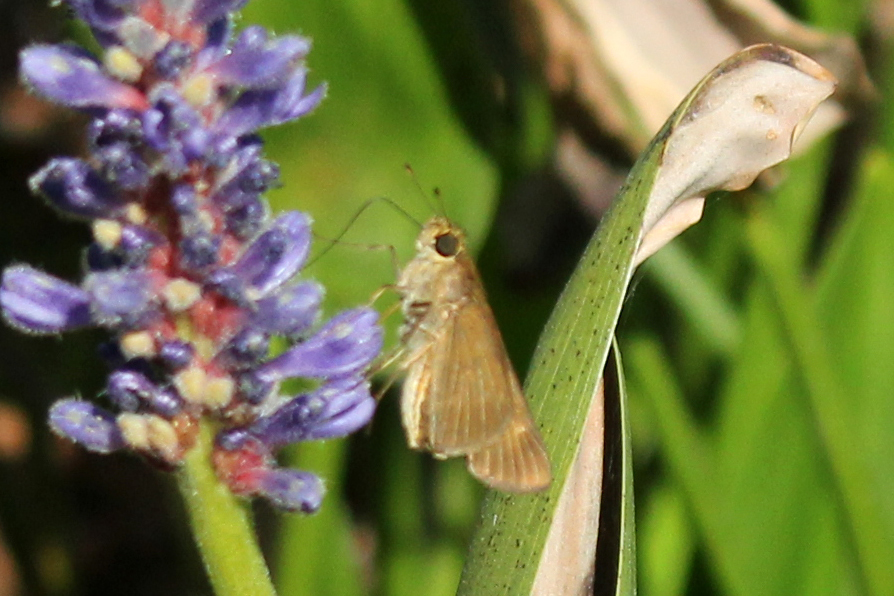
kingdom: Animalia
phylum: Arthropoda
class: Insecta
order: Lepidoptera
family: Hesperiidae
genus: Panoquina
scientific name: Panoquina ocola
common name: Ocola skipper
